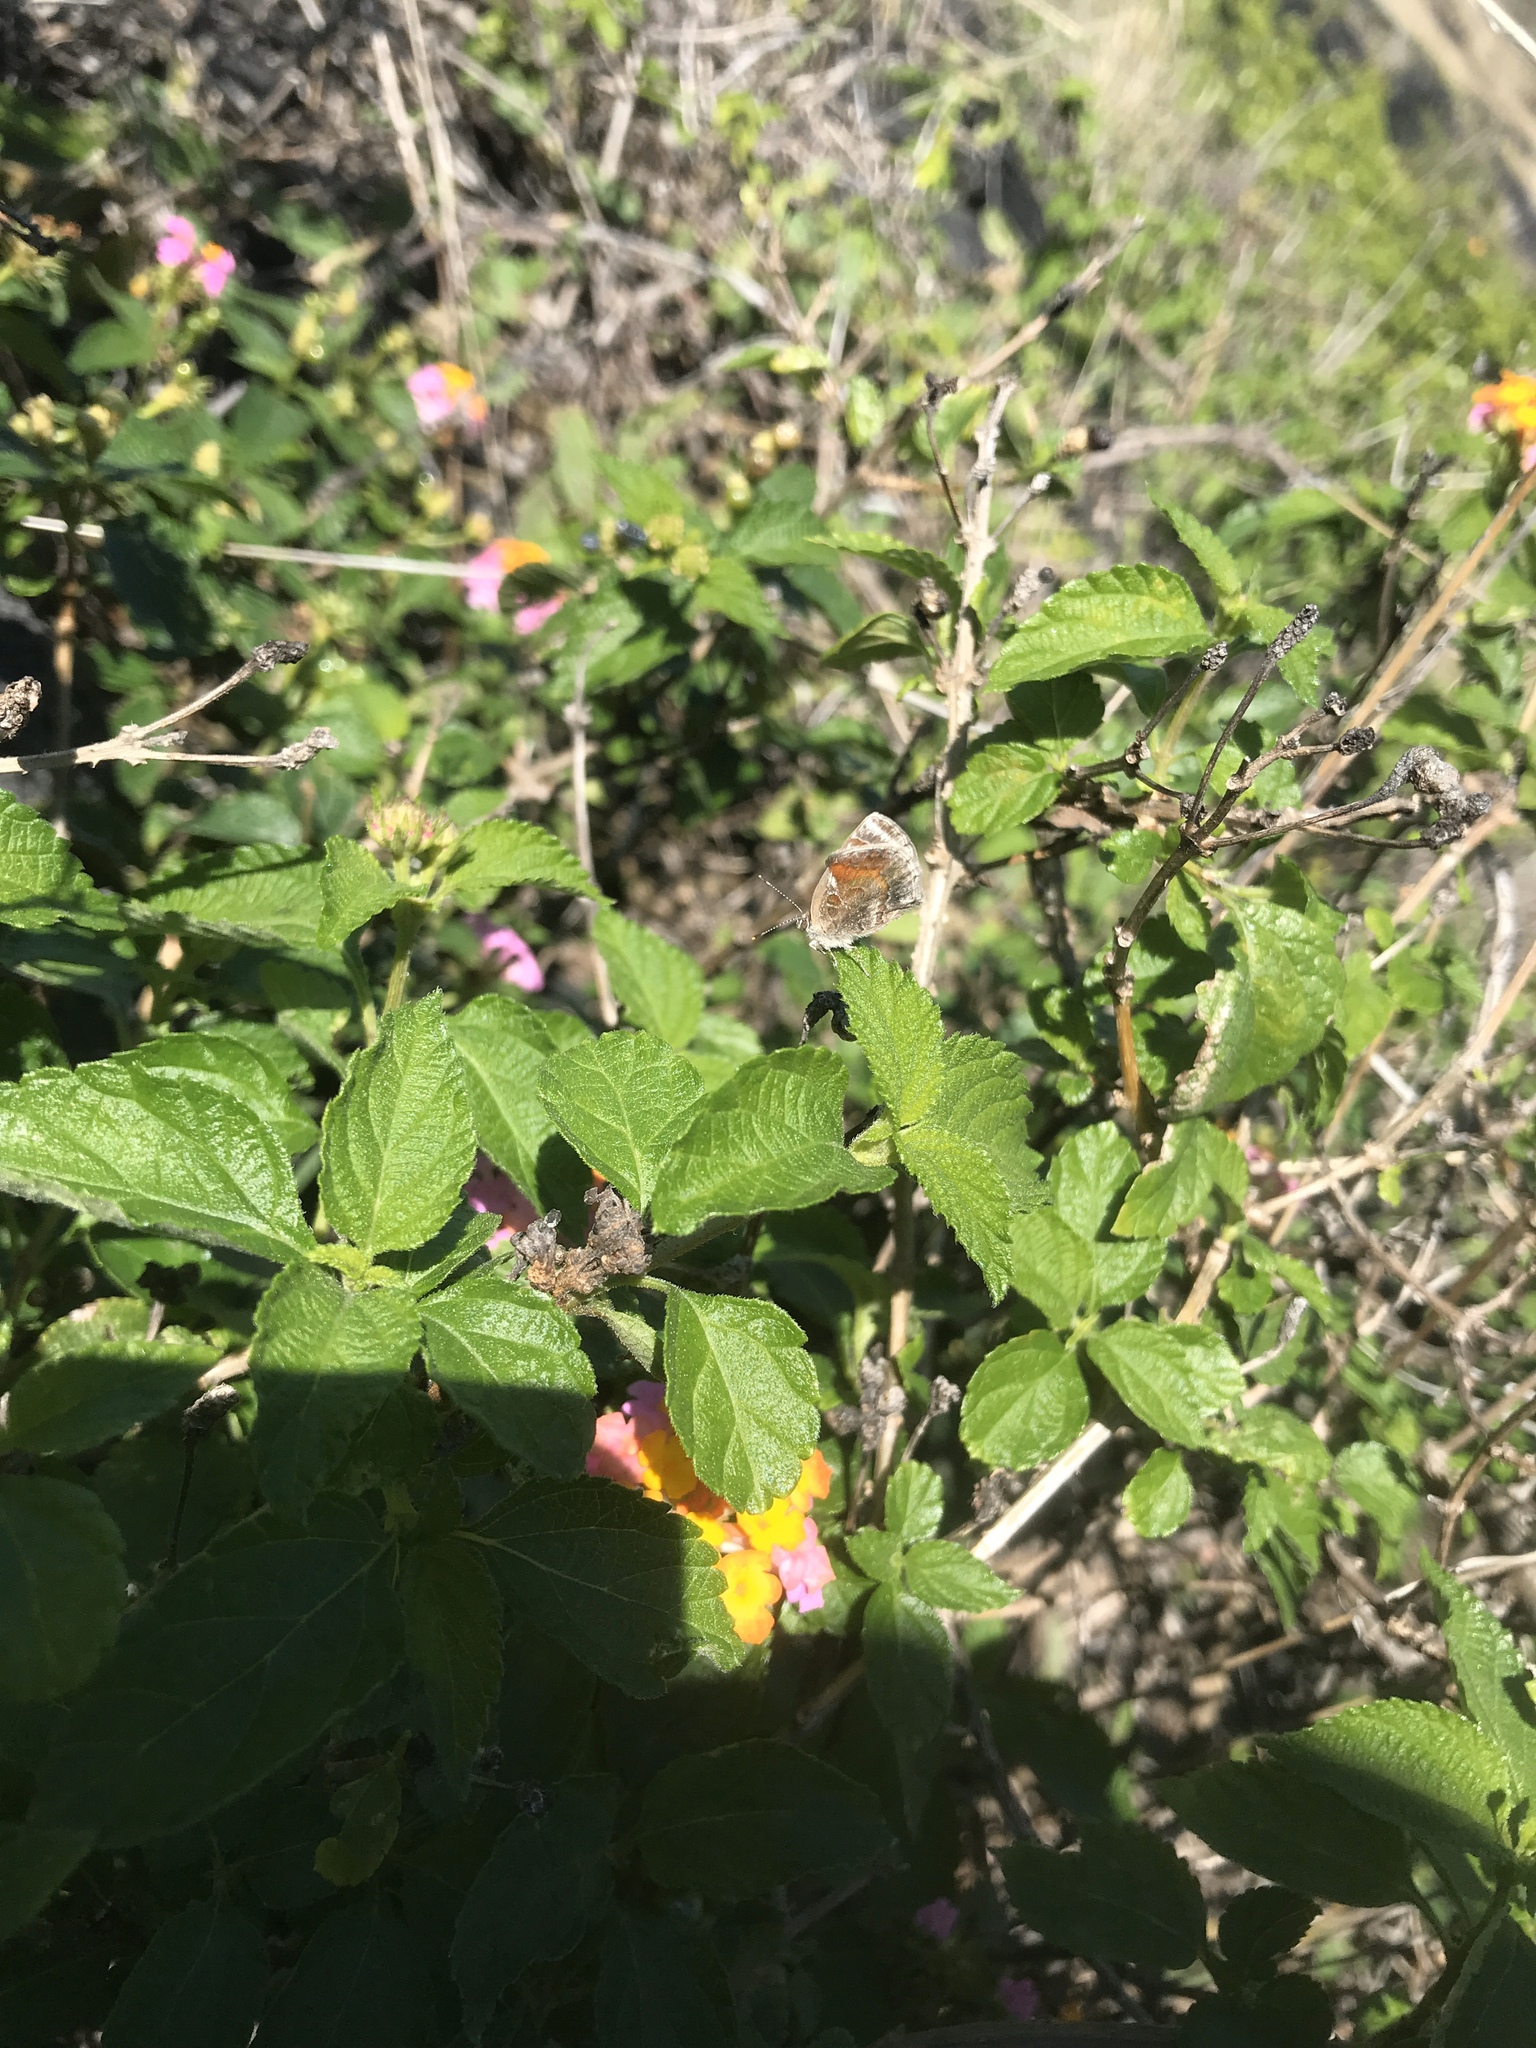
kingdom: Animalia
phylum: Arthropoda
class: Insecta
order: Lepidoptera
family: Lycaenidae
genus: Strymon
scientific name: Strymon bazochii
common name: Lantana scrub-hairstreak
